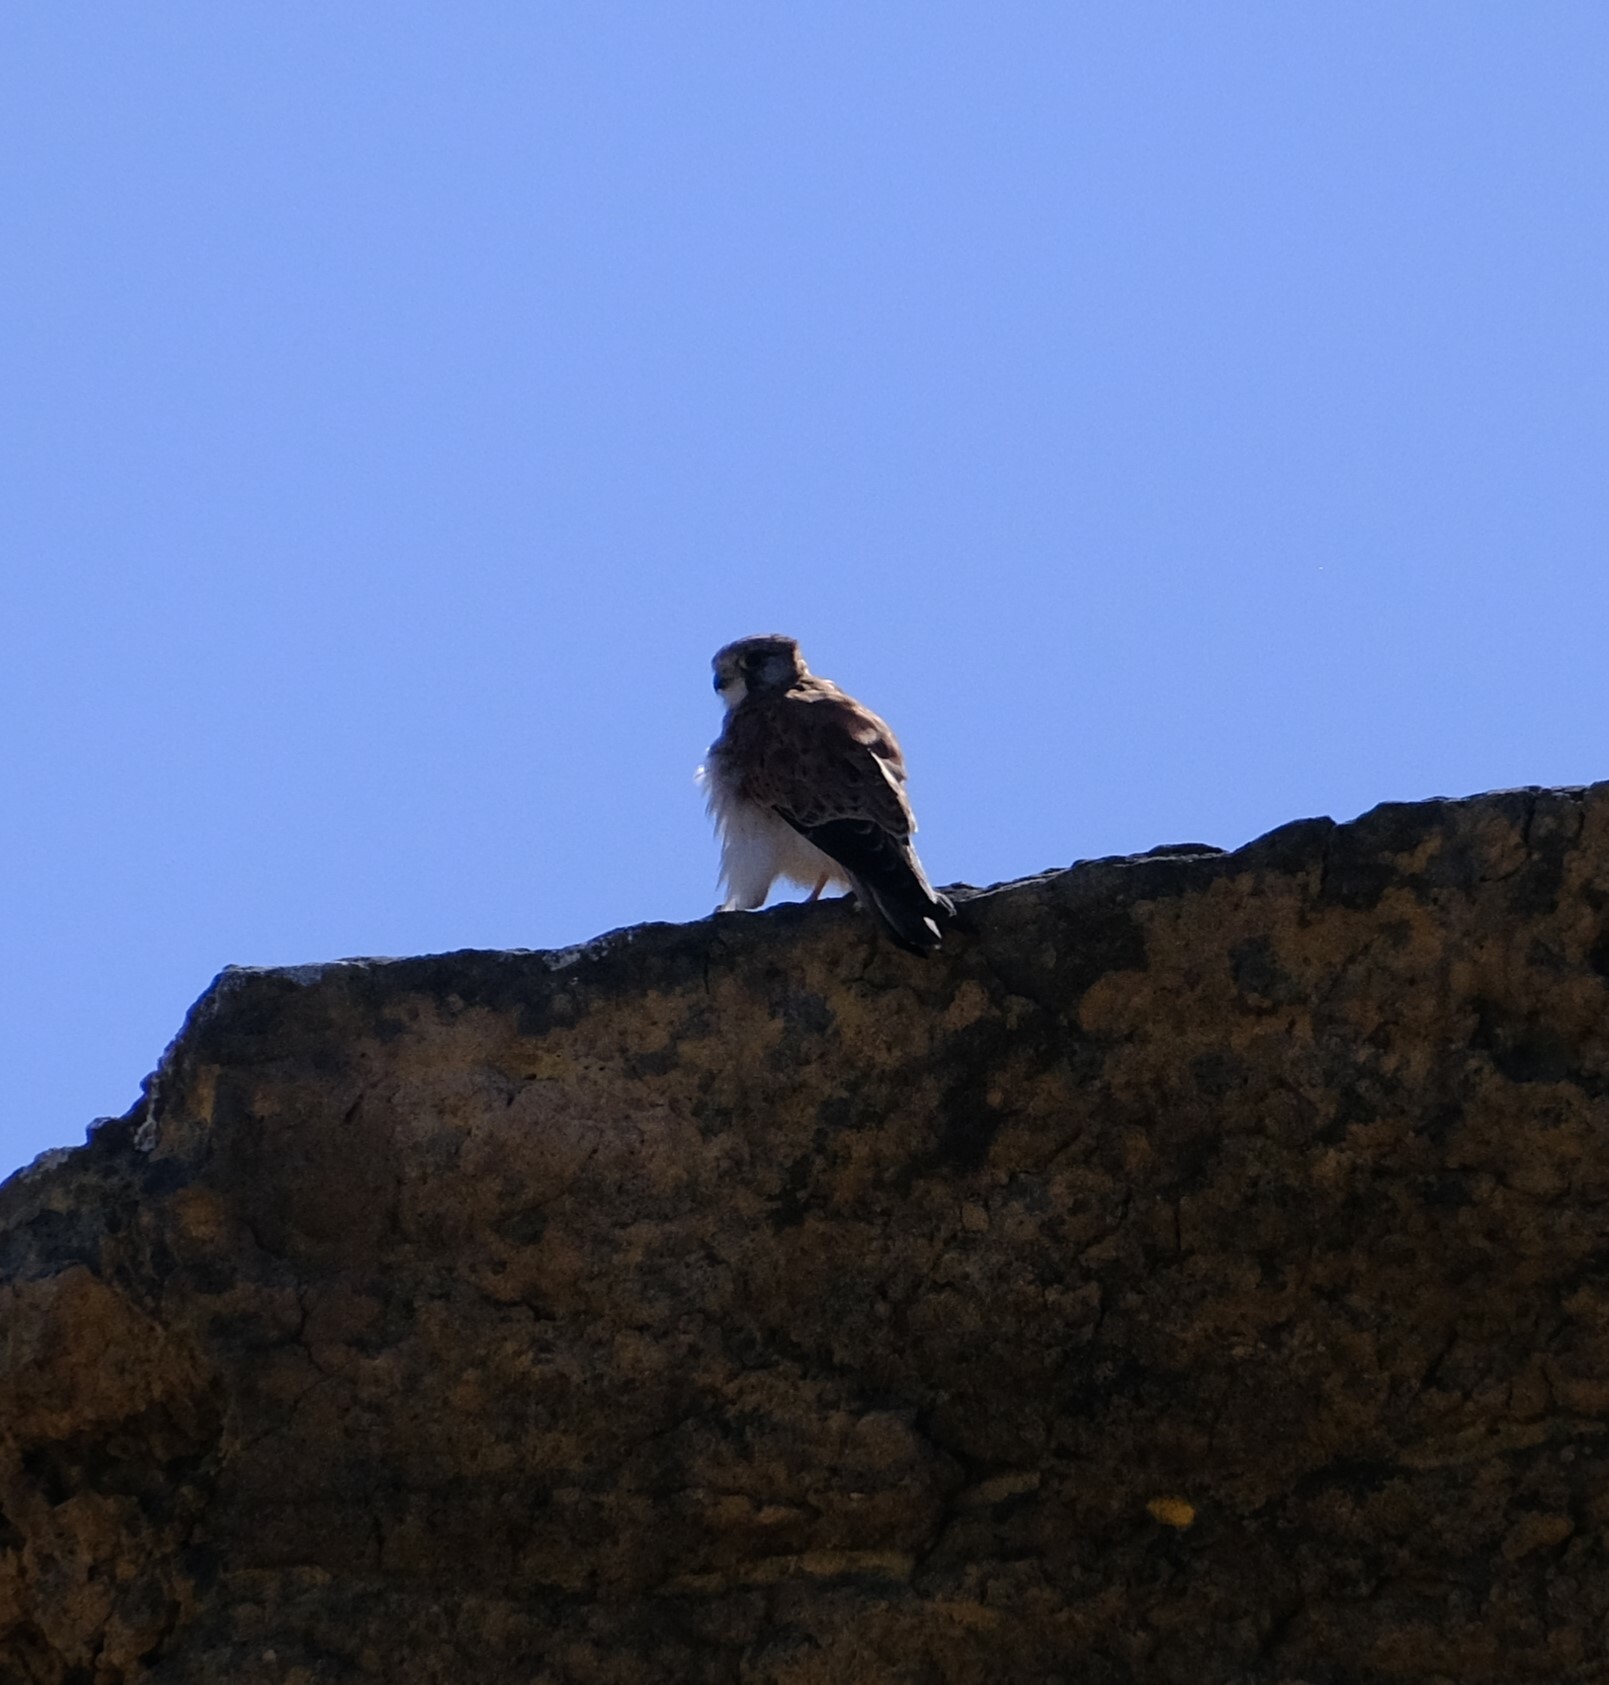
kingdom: Animalia
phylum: Chordata
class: Aves
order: Falconiformes
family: Falconidae
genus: Falco
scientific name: Falco cenchroides
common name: Nankeen kestrel
